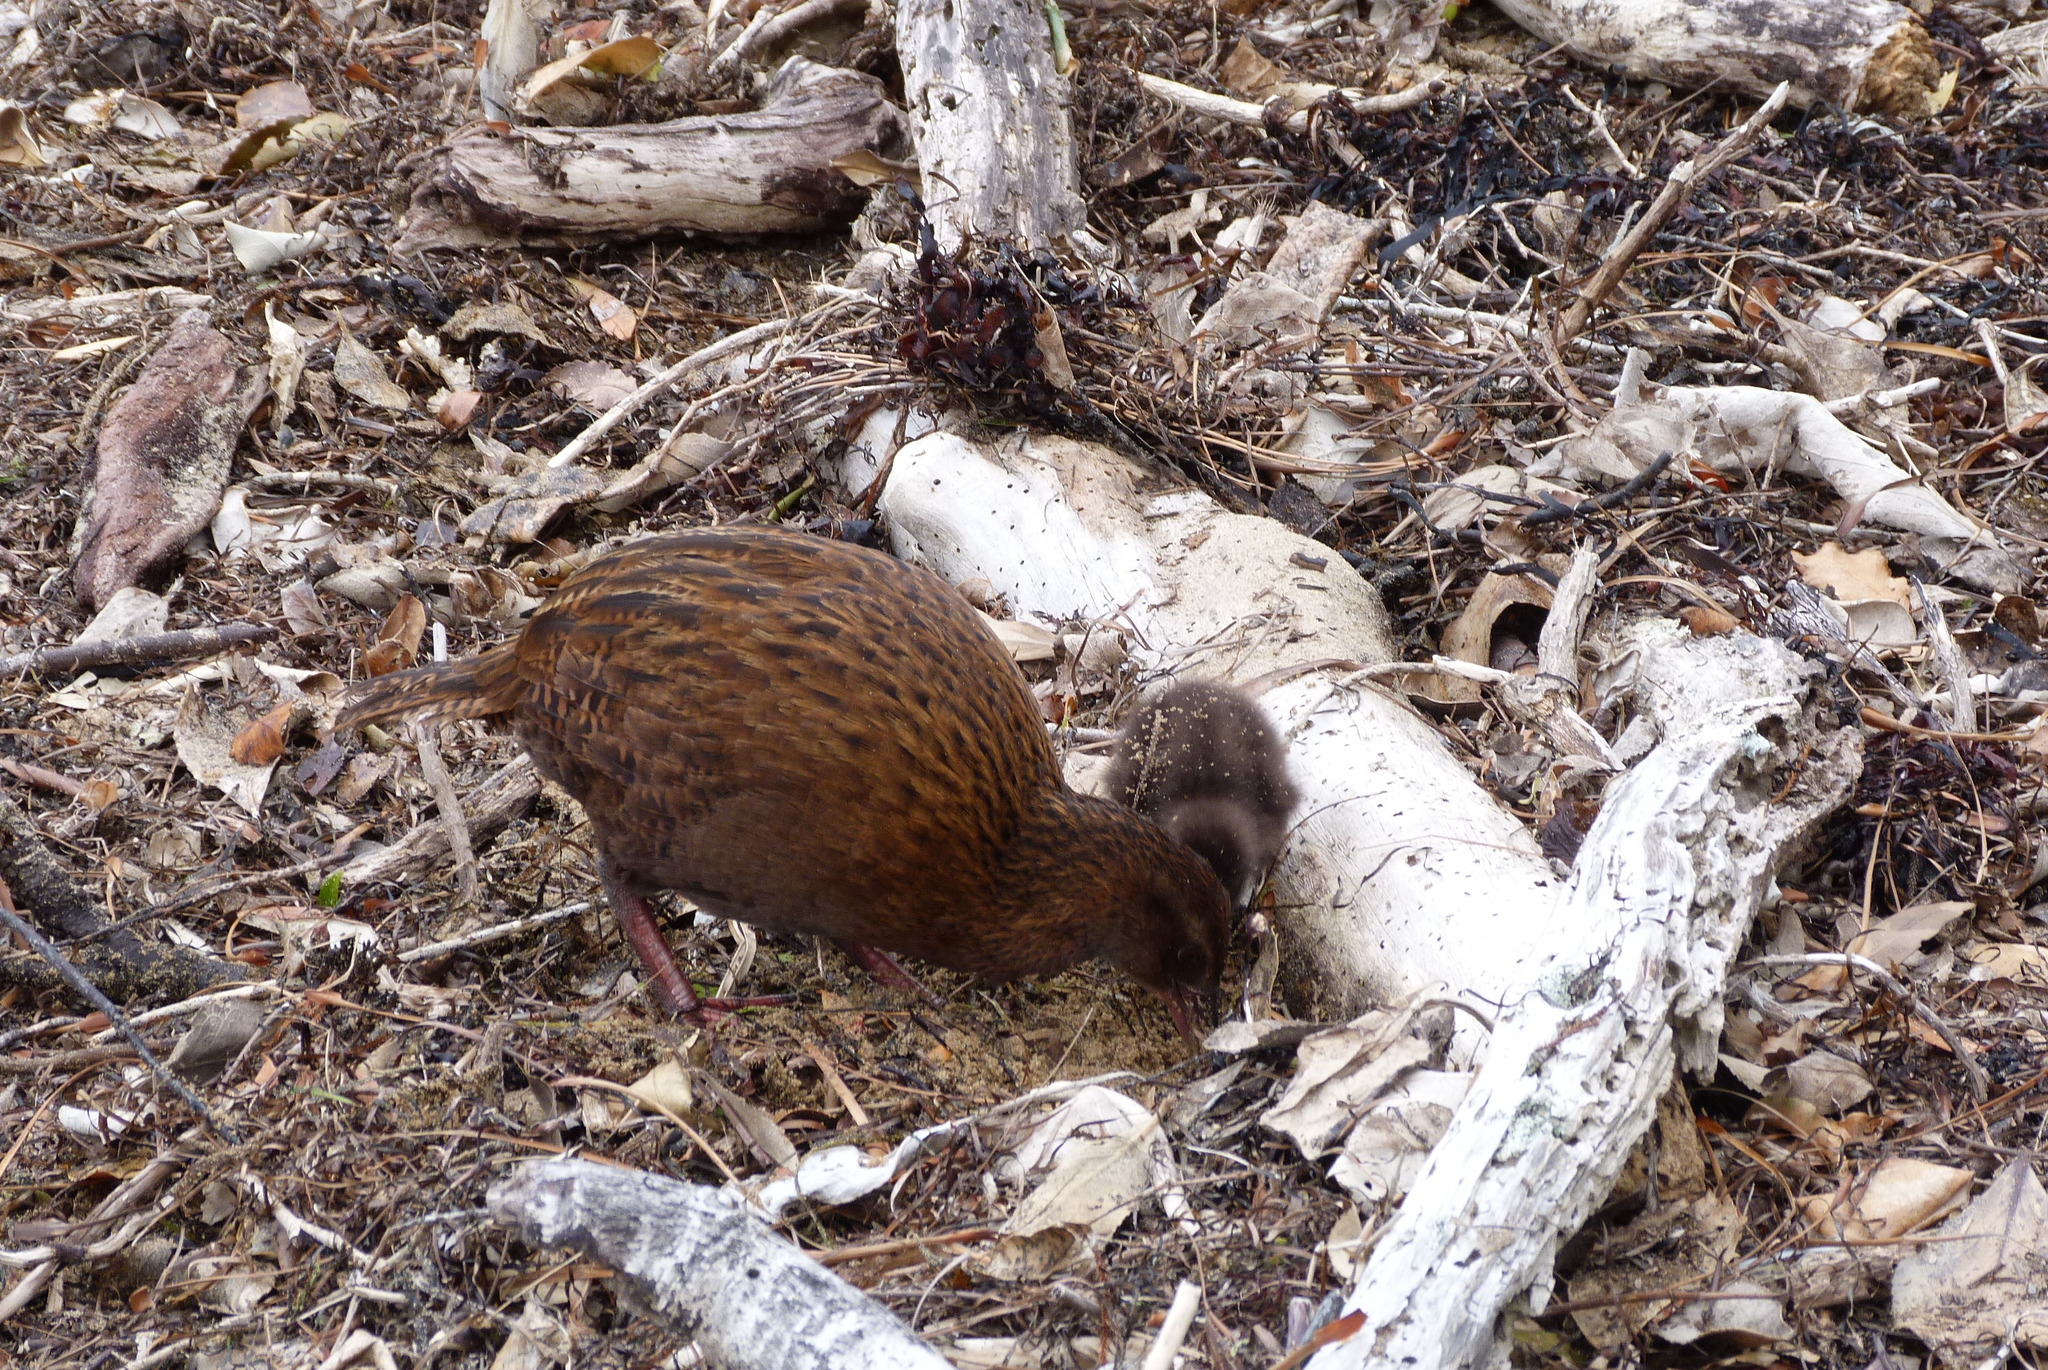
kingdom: Animalia
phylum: Chordata
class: Aves
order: Gruiformes
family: Rallidae
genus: Gallirallus
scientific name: Gallirallus australis
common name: Weka
